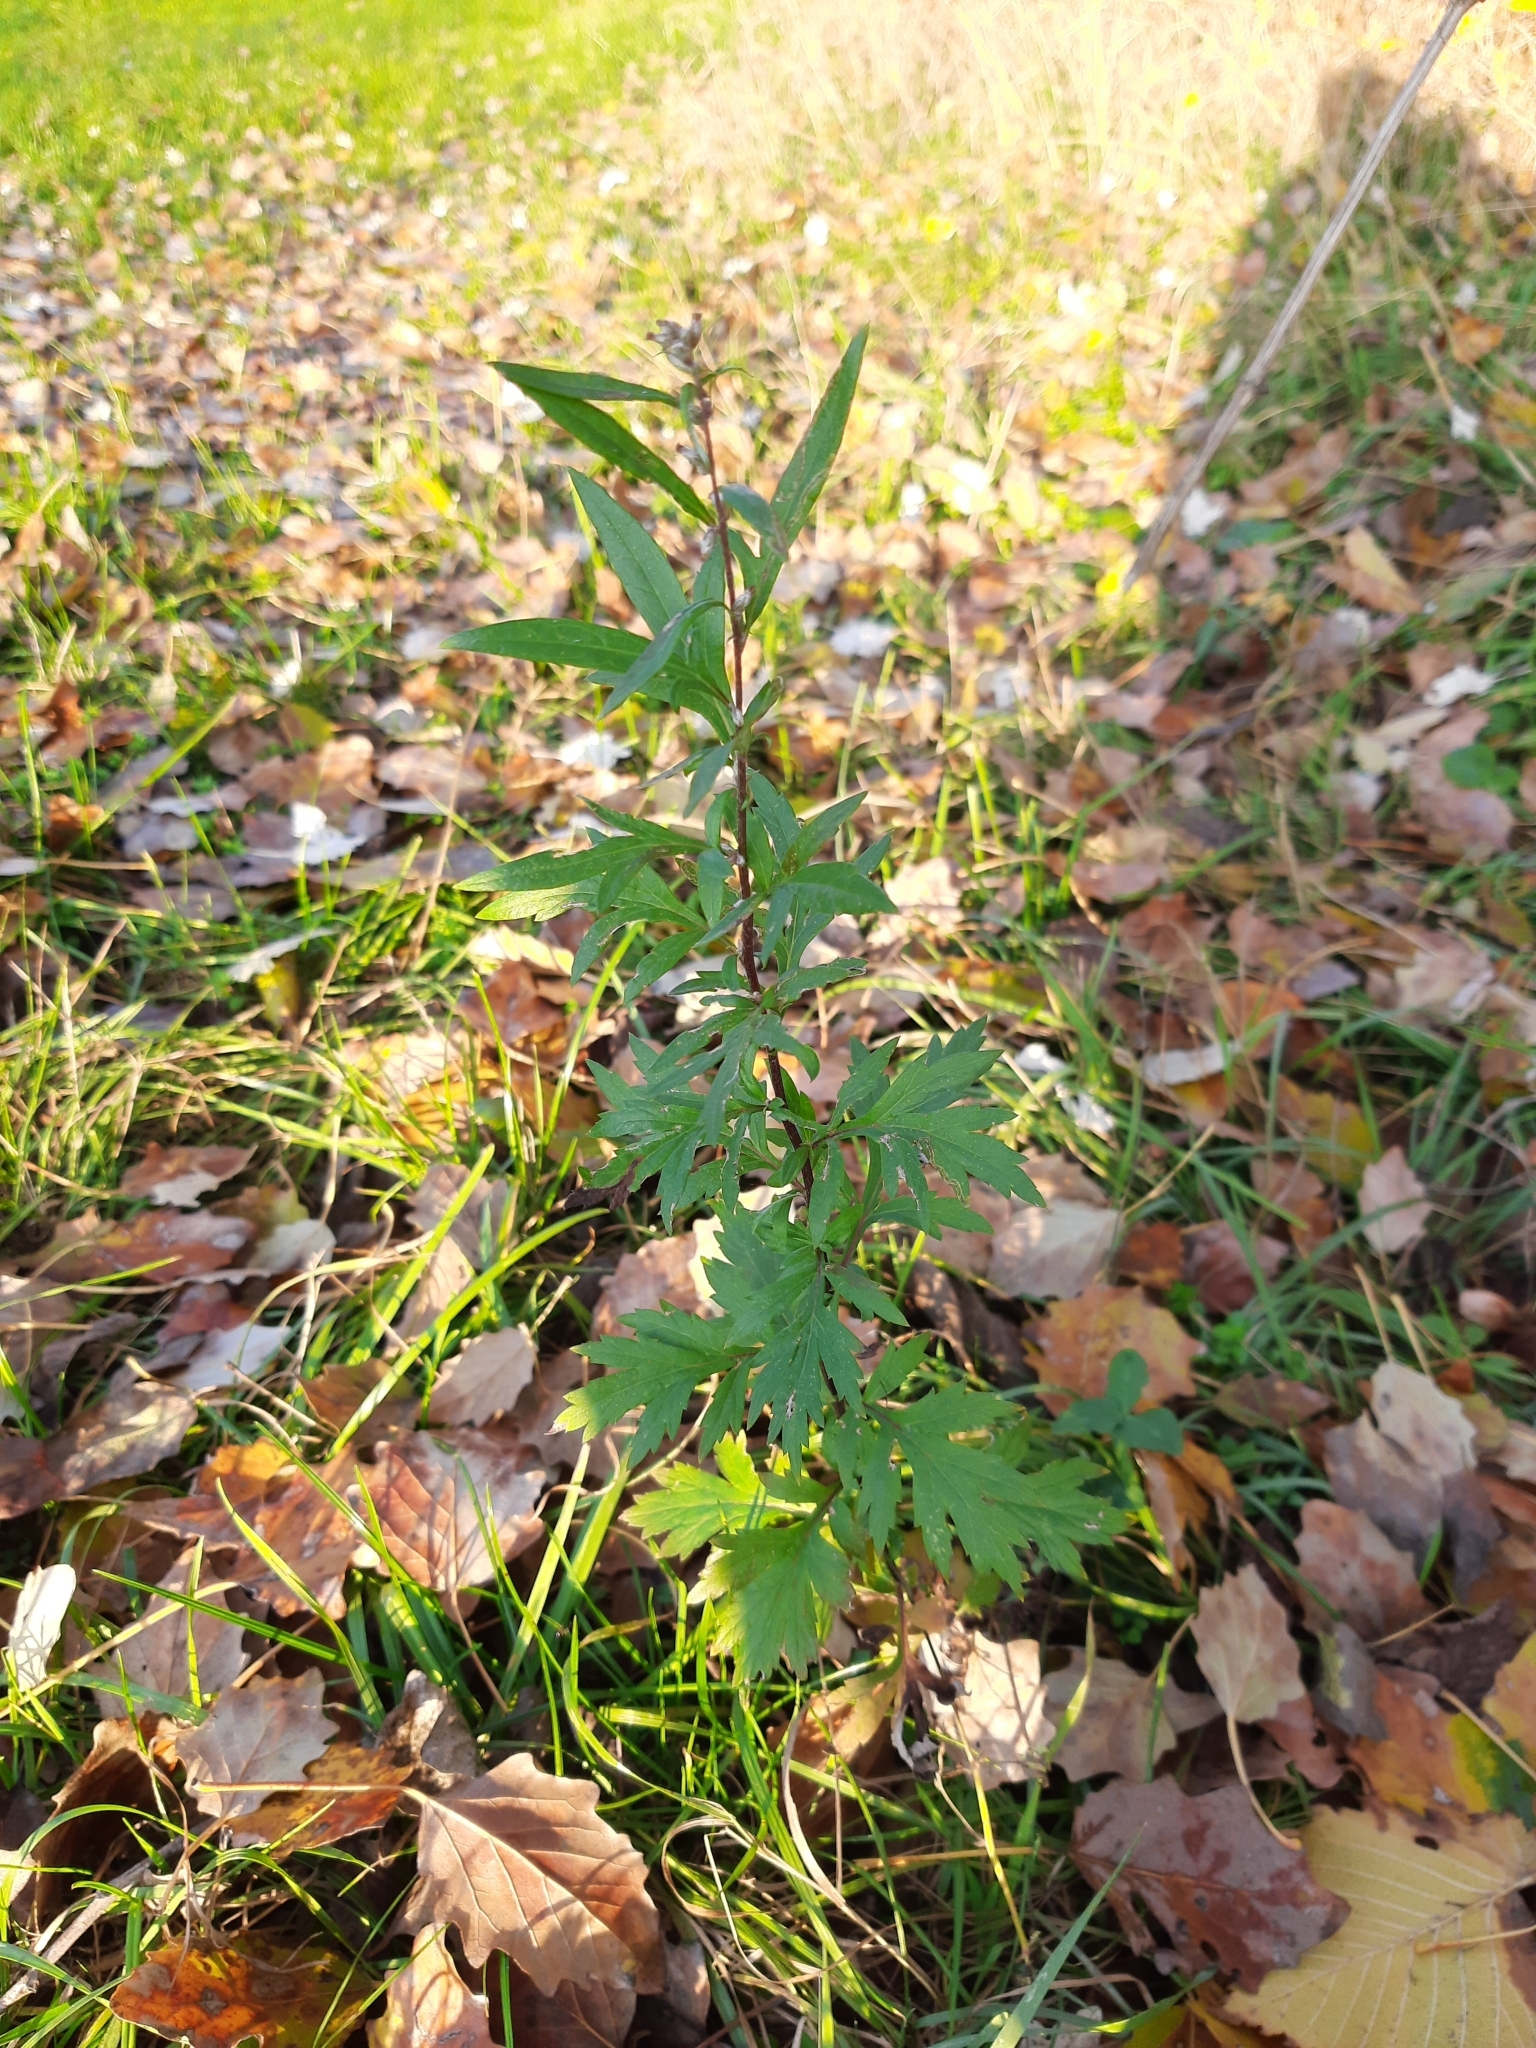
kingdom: Plantae
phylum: Tracheophyta
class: Magnoliopsida
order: Asterales
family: Asteraceae
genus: Artemisia
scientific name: Artemisia vulgaris
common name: Mugwort
